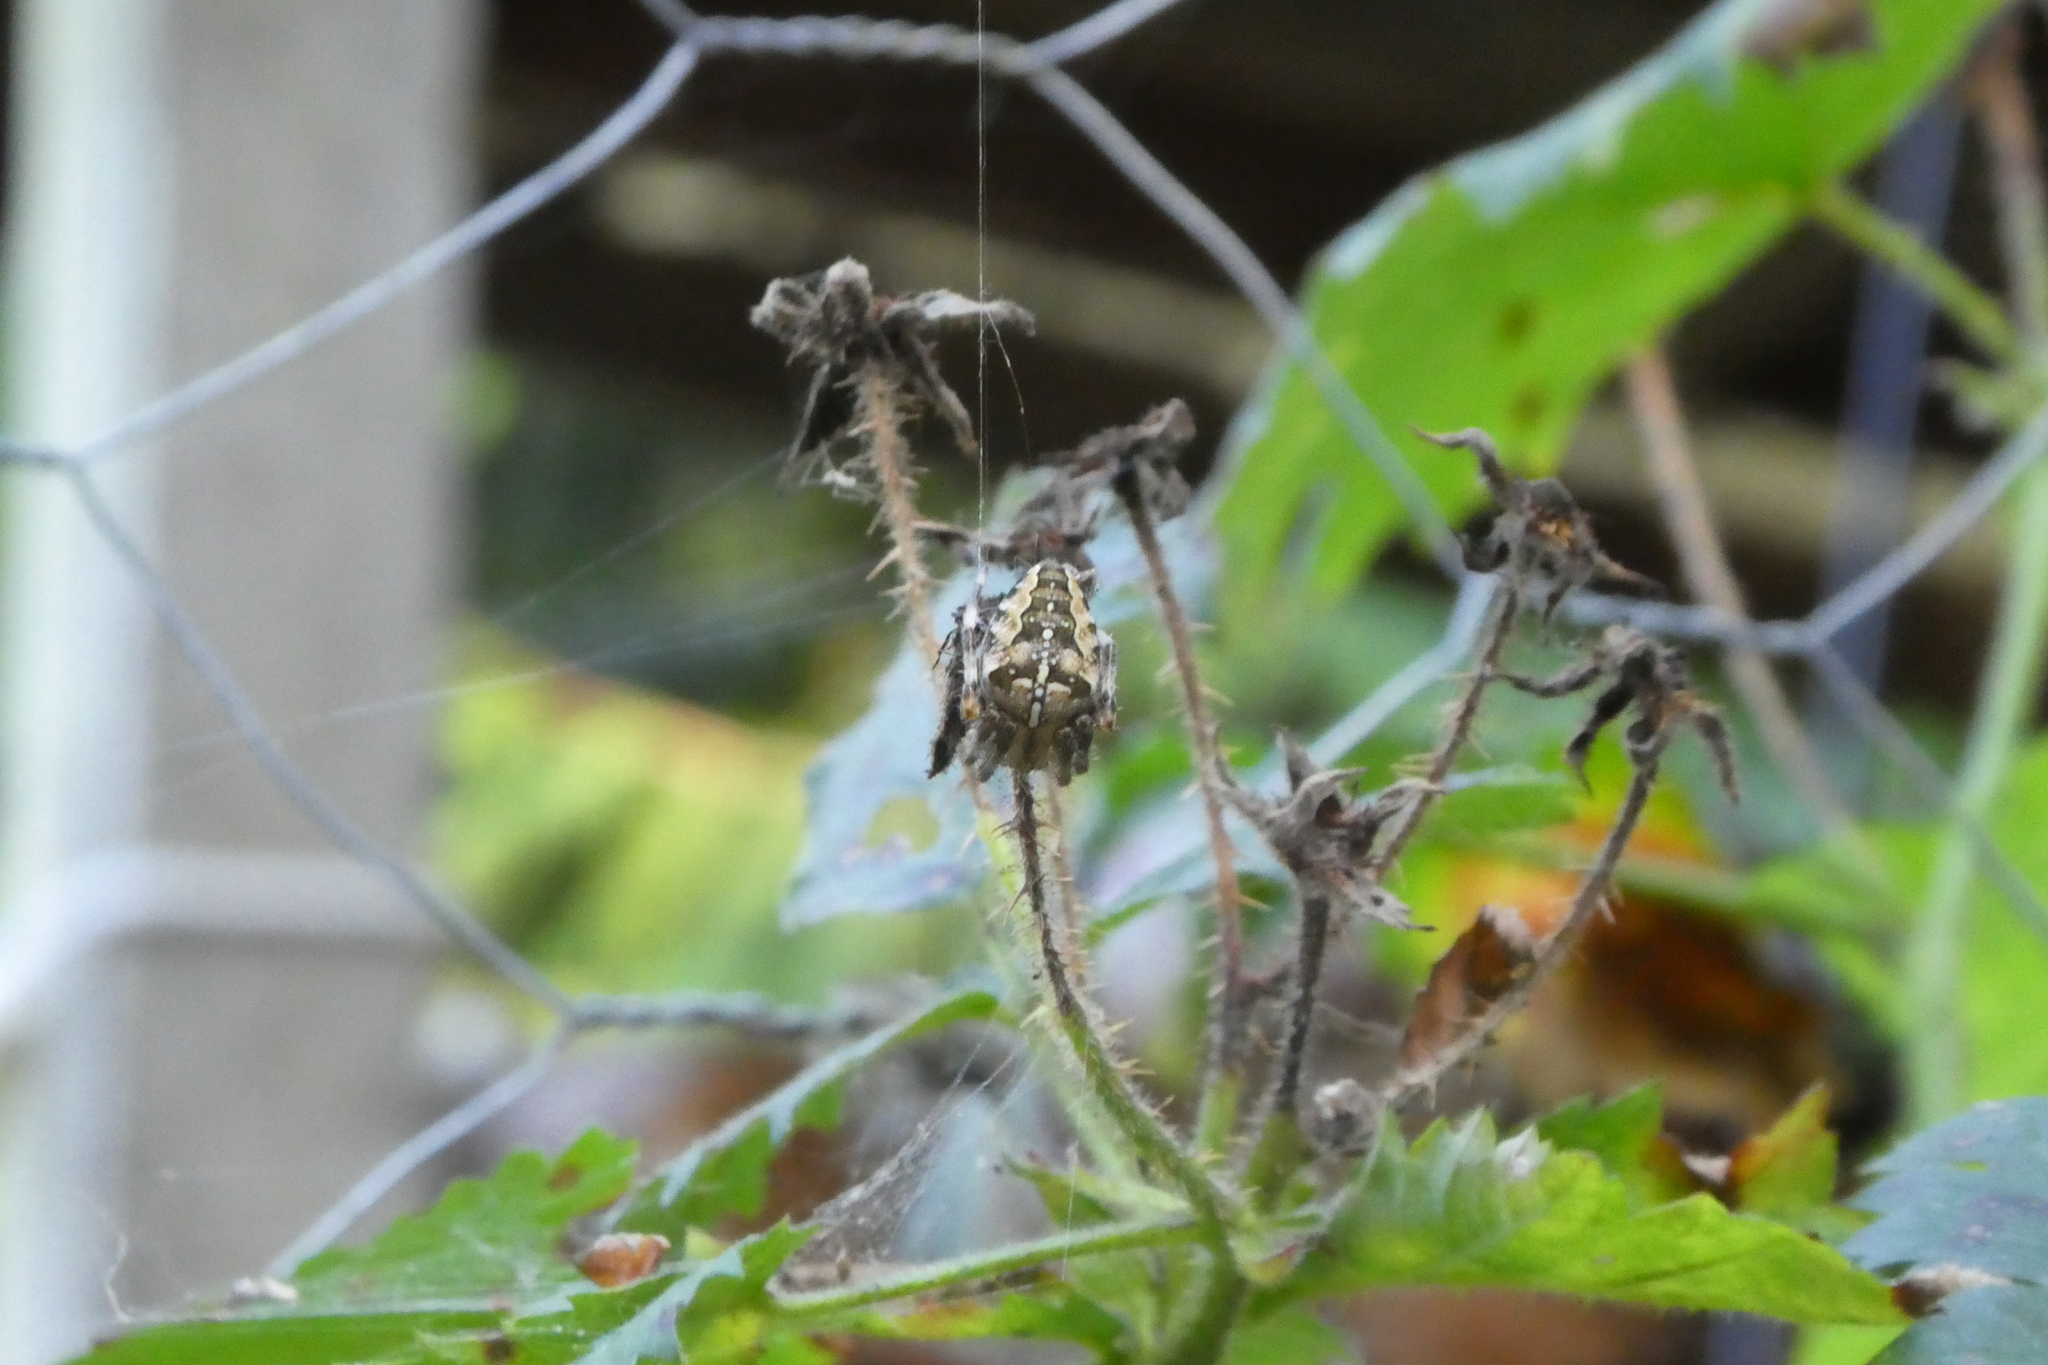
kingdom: Animalia
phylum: Arthropoda
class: Arachnida
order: Araneae
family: Araneidae
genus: Araneus
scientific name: Araneus diadematus
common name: Cross orbweaver
